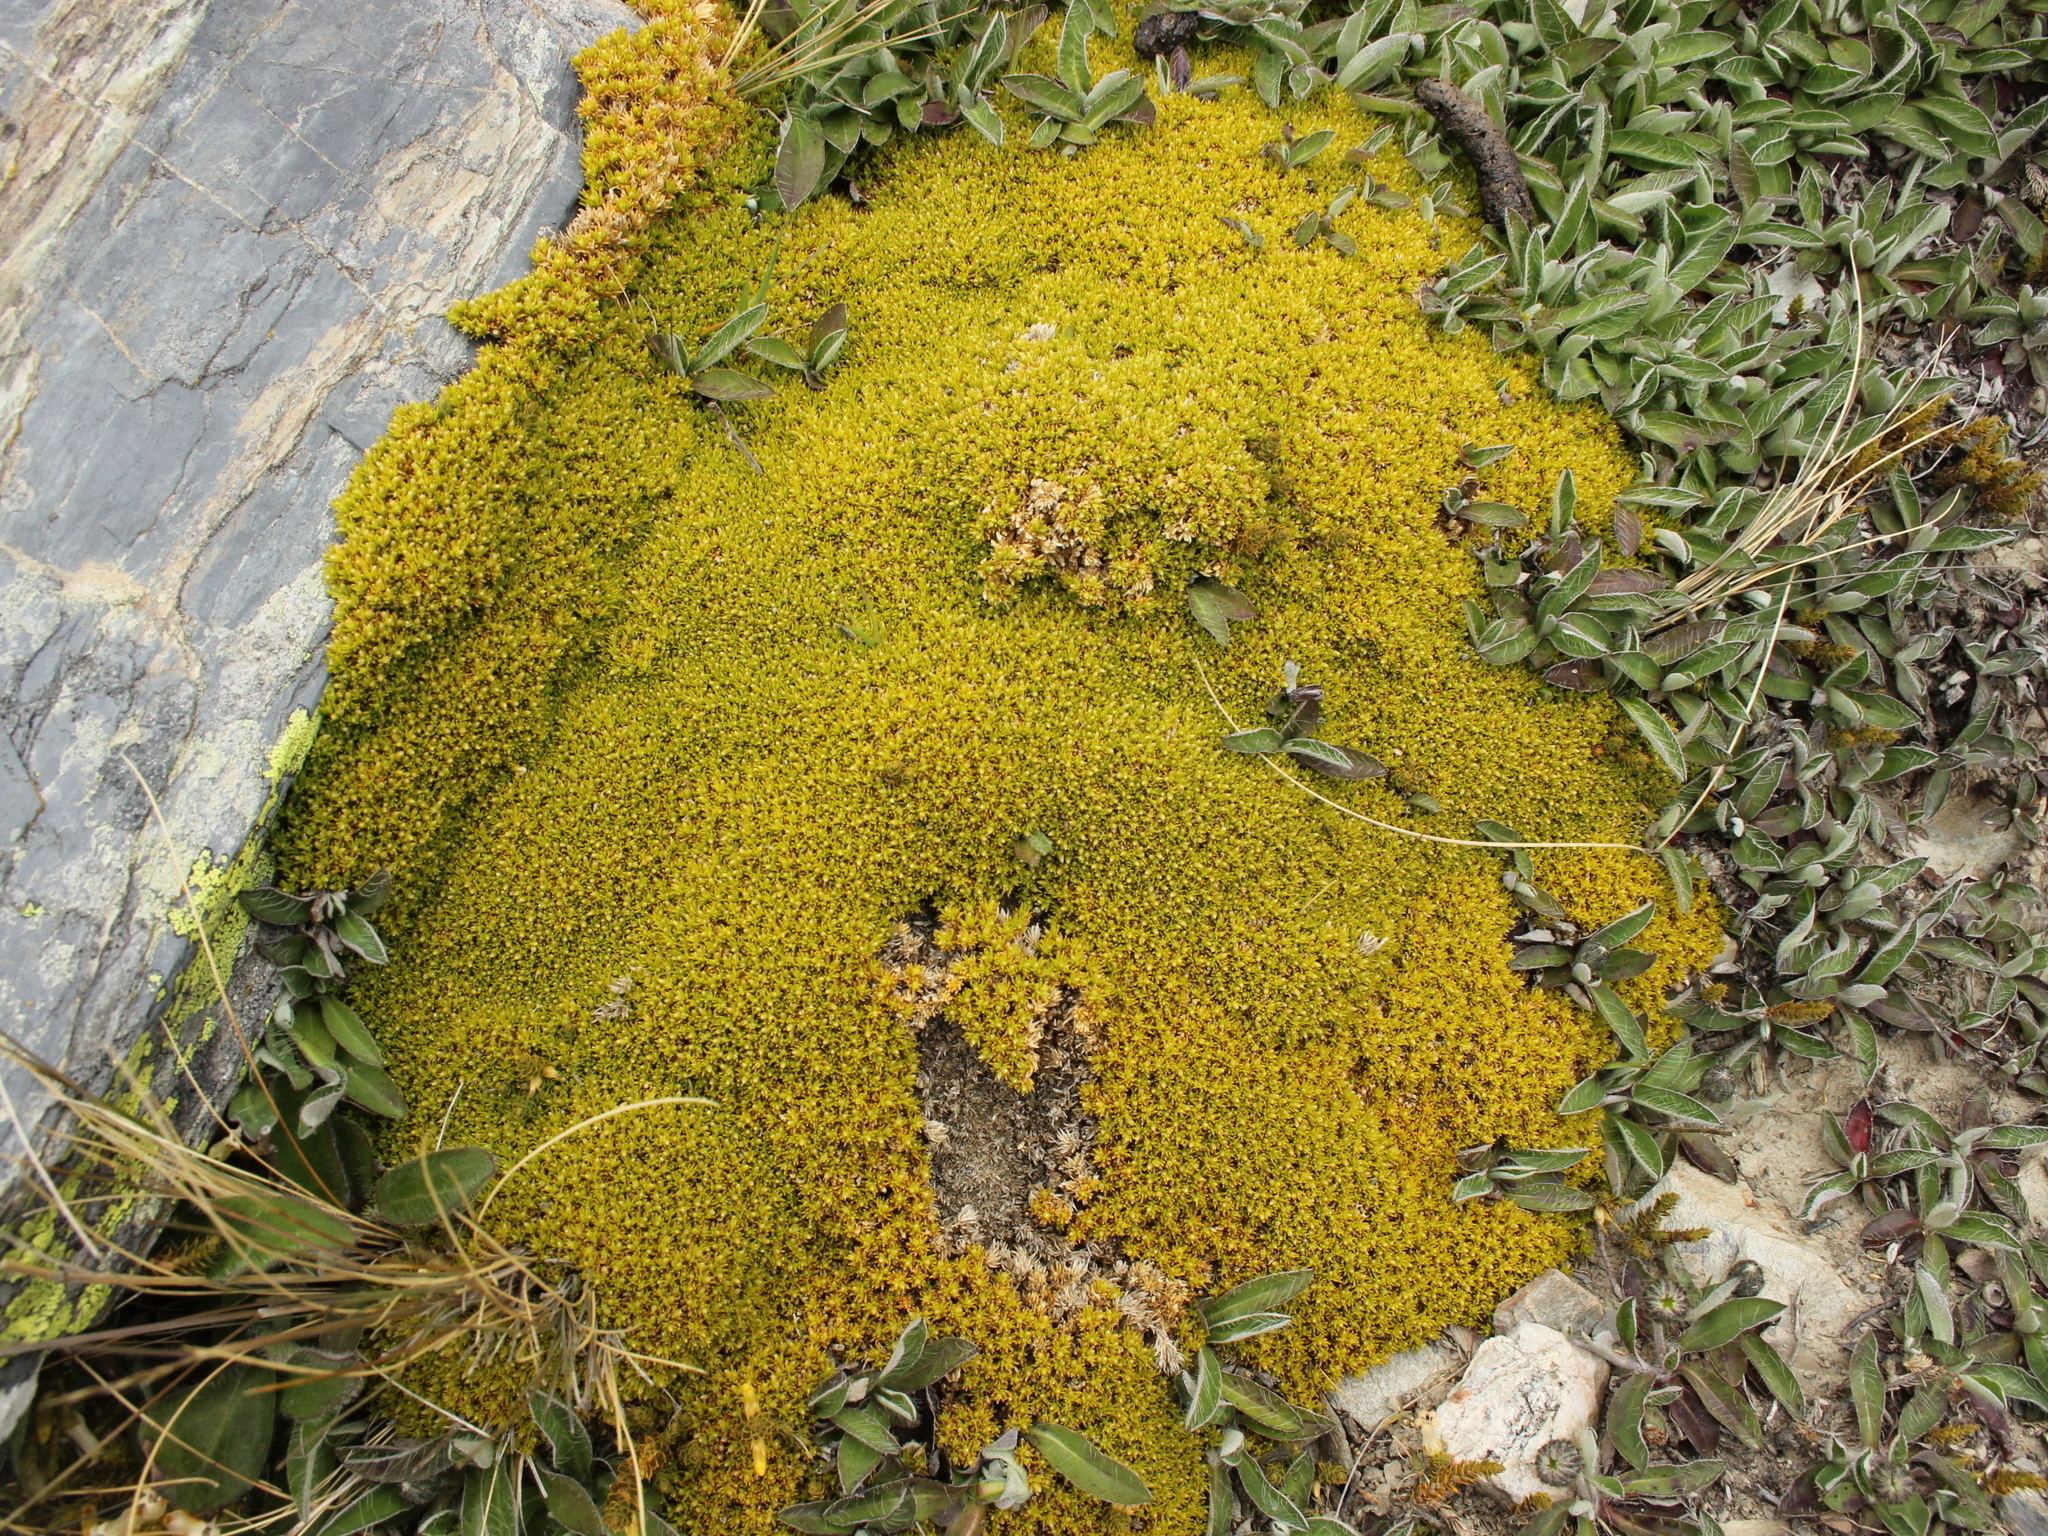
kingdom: Plantae
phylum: Tracheophyta
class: Magnoliopsida
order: Caryophyllales
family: Caryophyllaceae
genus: Scleranthus
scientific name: Scleranthus uniflorus
